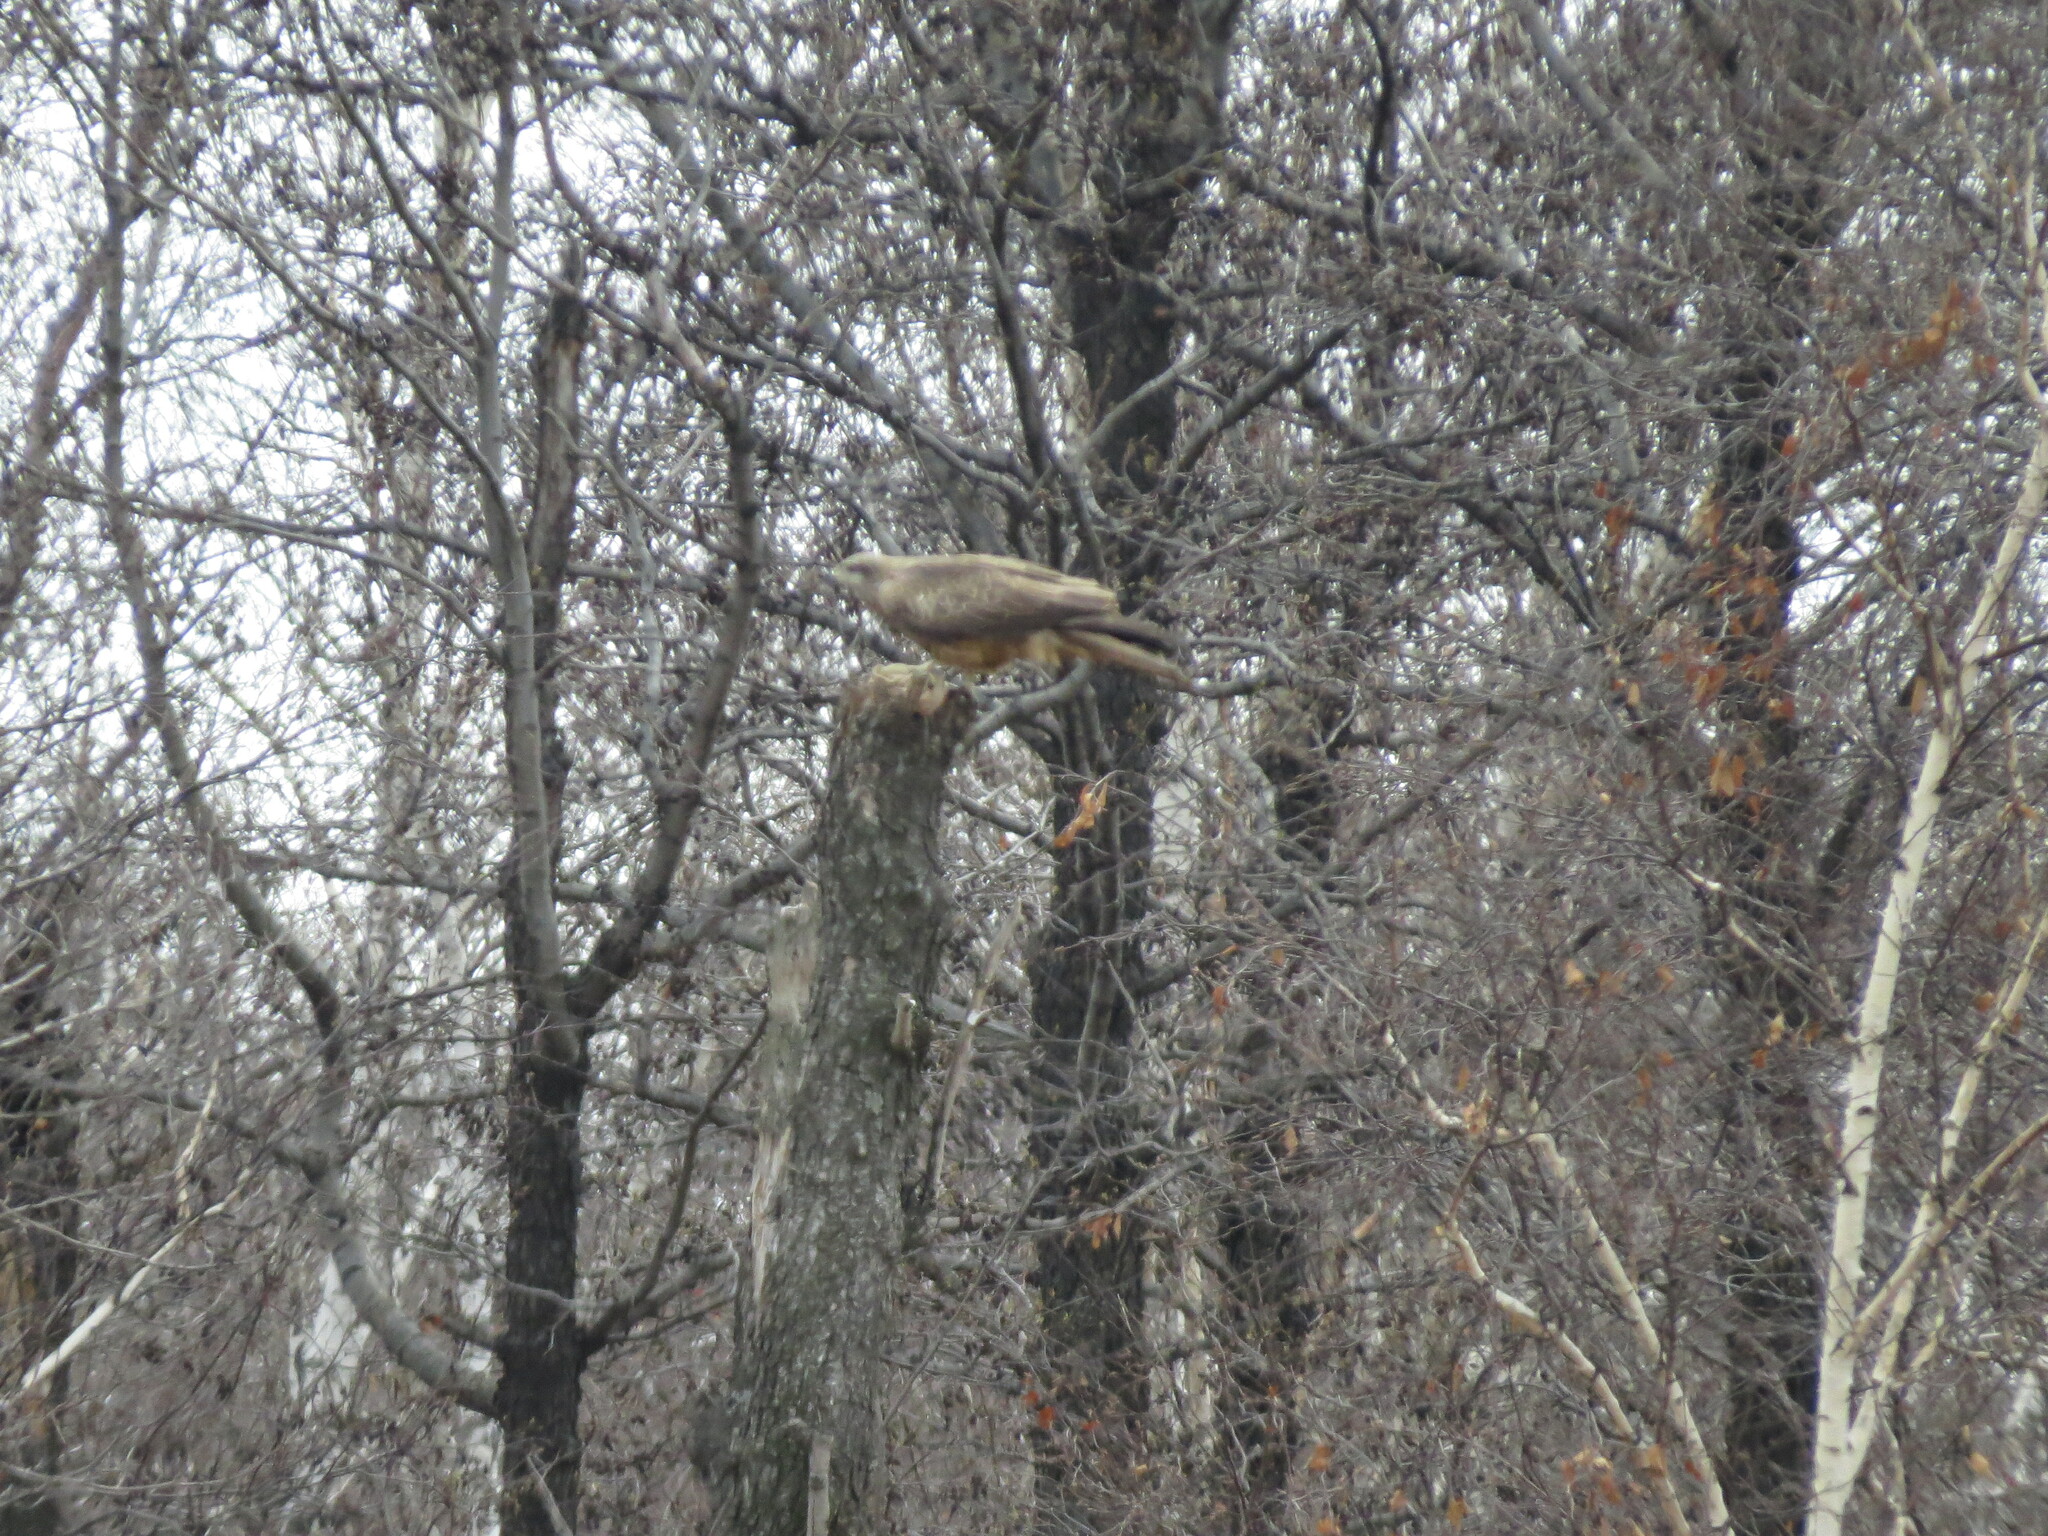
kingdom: Animalia
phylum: Chordata
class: Aves
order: Accipitriformes
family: Accipitridae
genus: Milvus
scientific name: Milvus migrans
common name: Black kite
